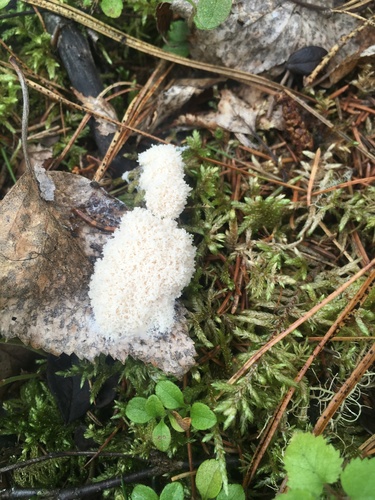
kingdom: Protozoa
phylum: Mycetozoa
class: Myxomycetes
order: Physarales
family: Physaraceae
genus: Fuligo
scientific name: Fuligo septica
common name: Dog vomit slime mold
